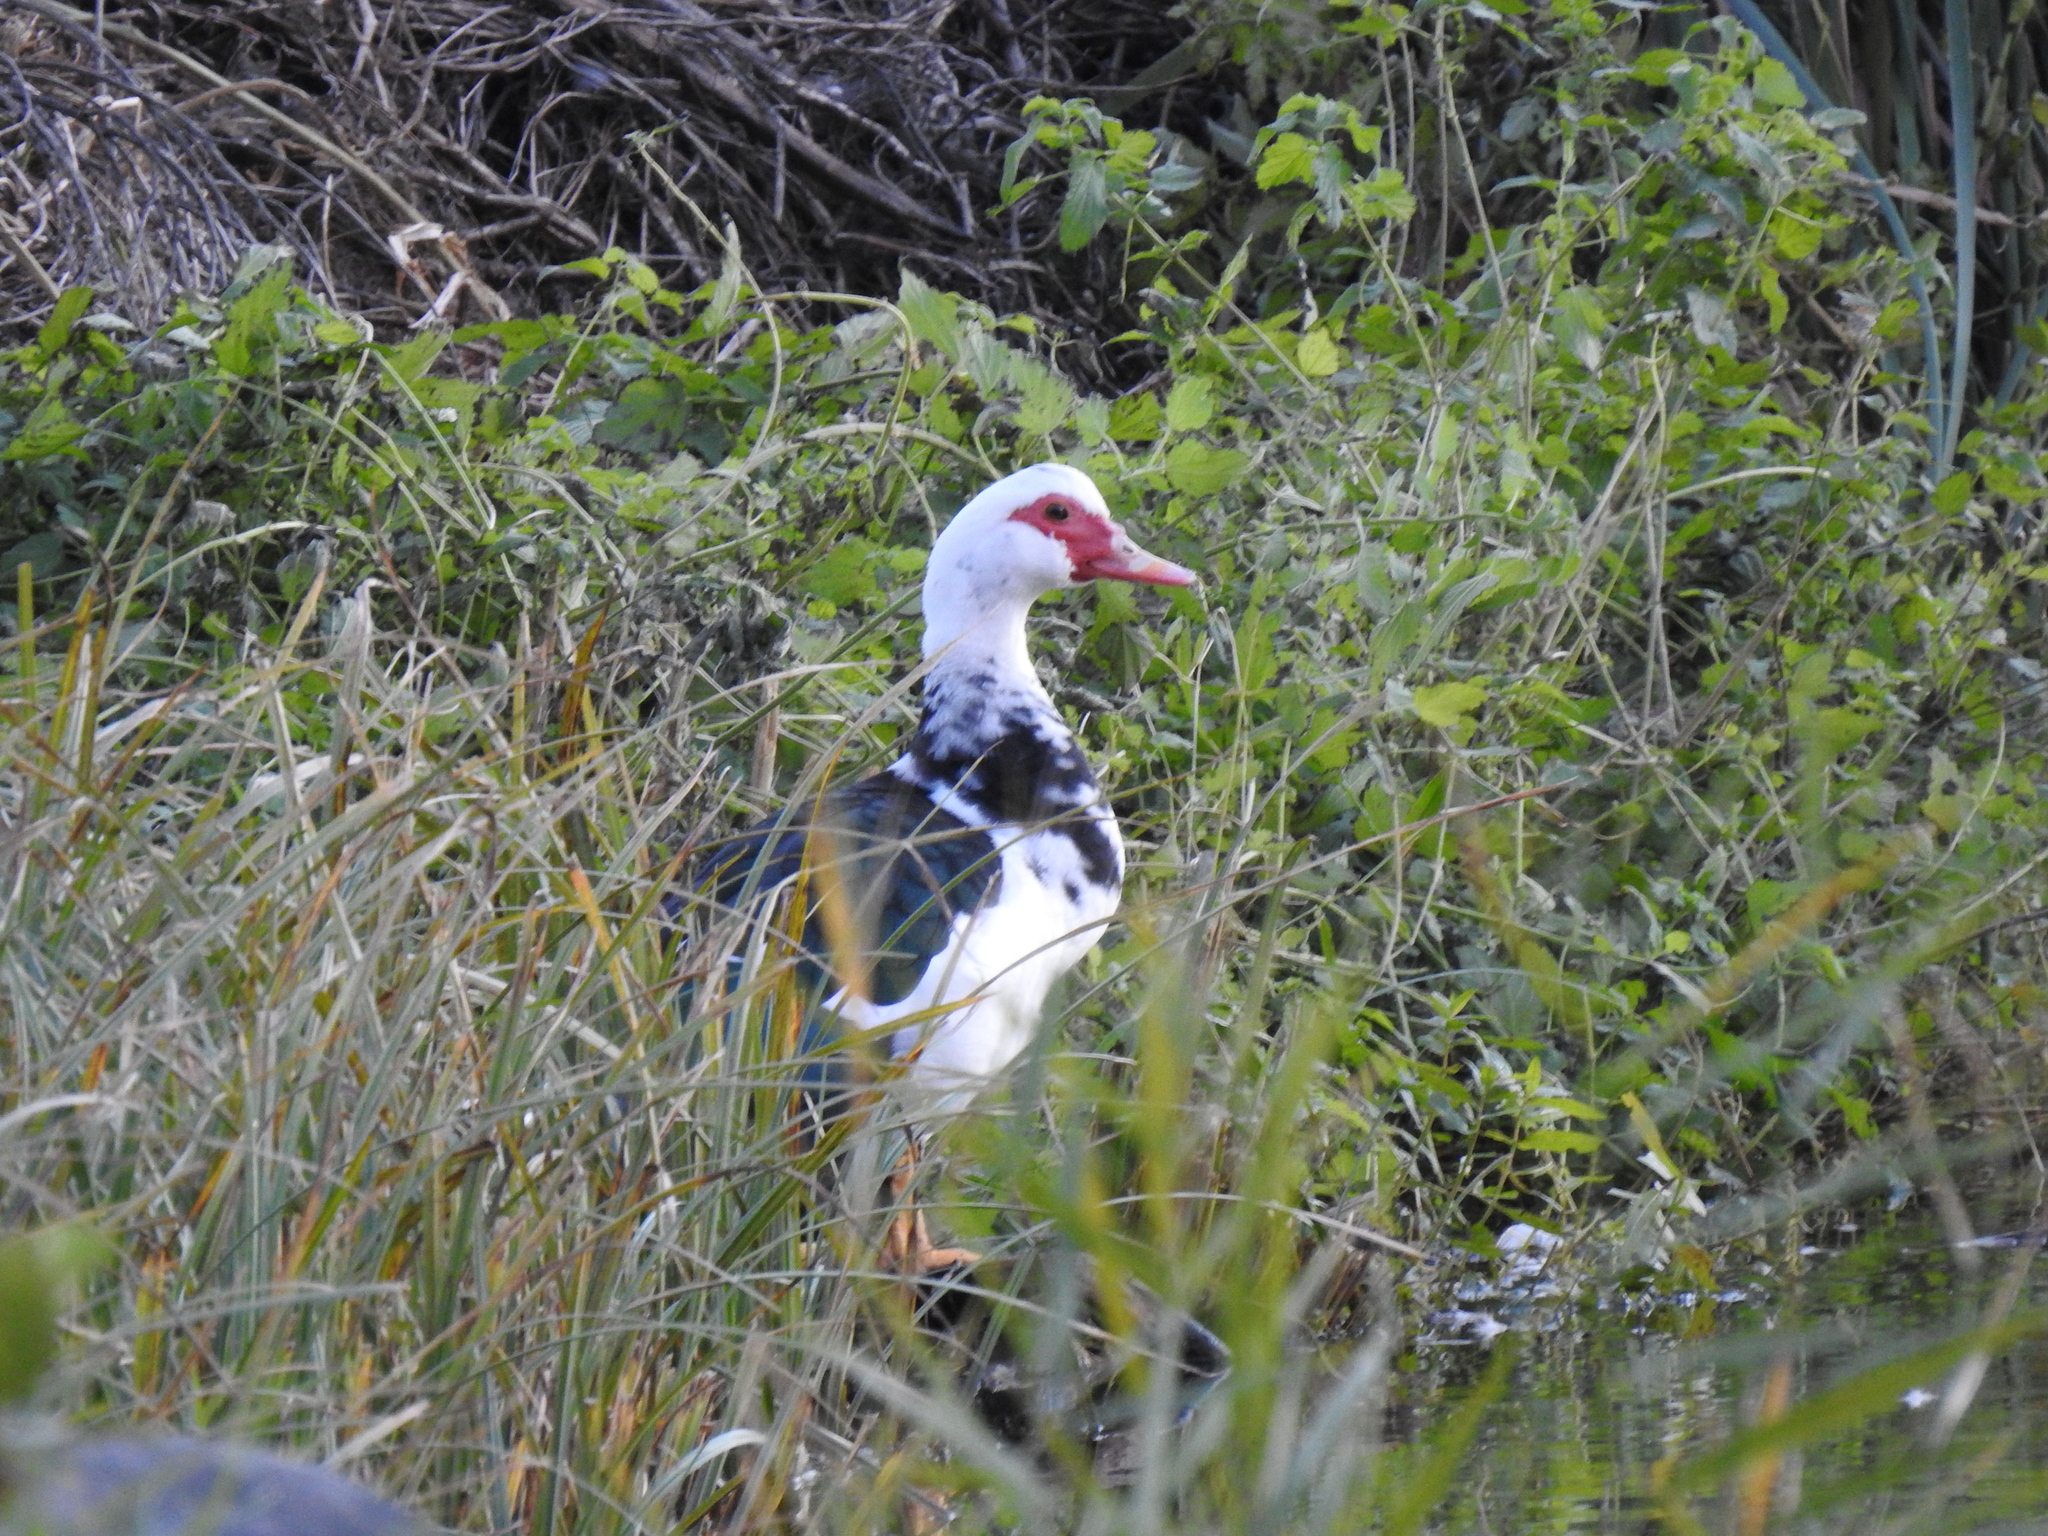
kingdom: Animalia
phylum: Chordata
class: Aves
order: Anseriformes
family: Anatidae
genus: Cairina
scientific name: Cairina moschata
